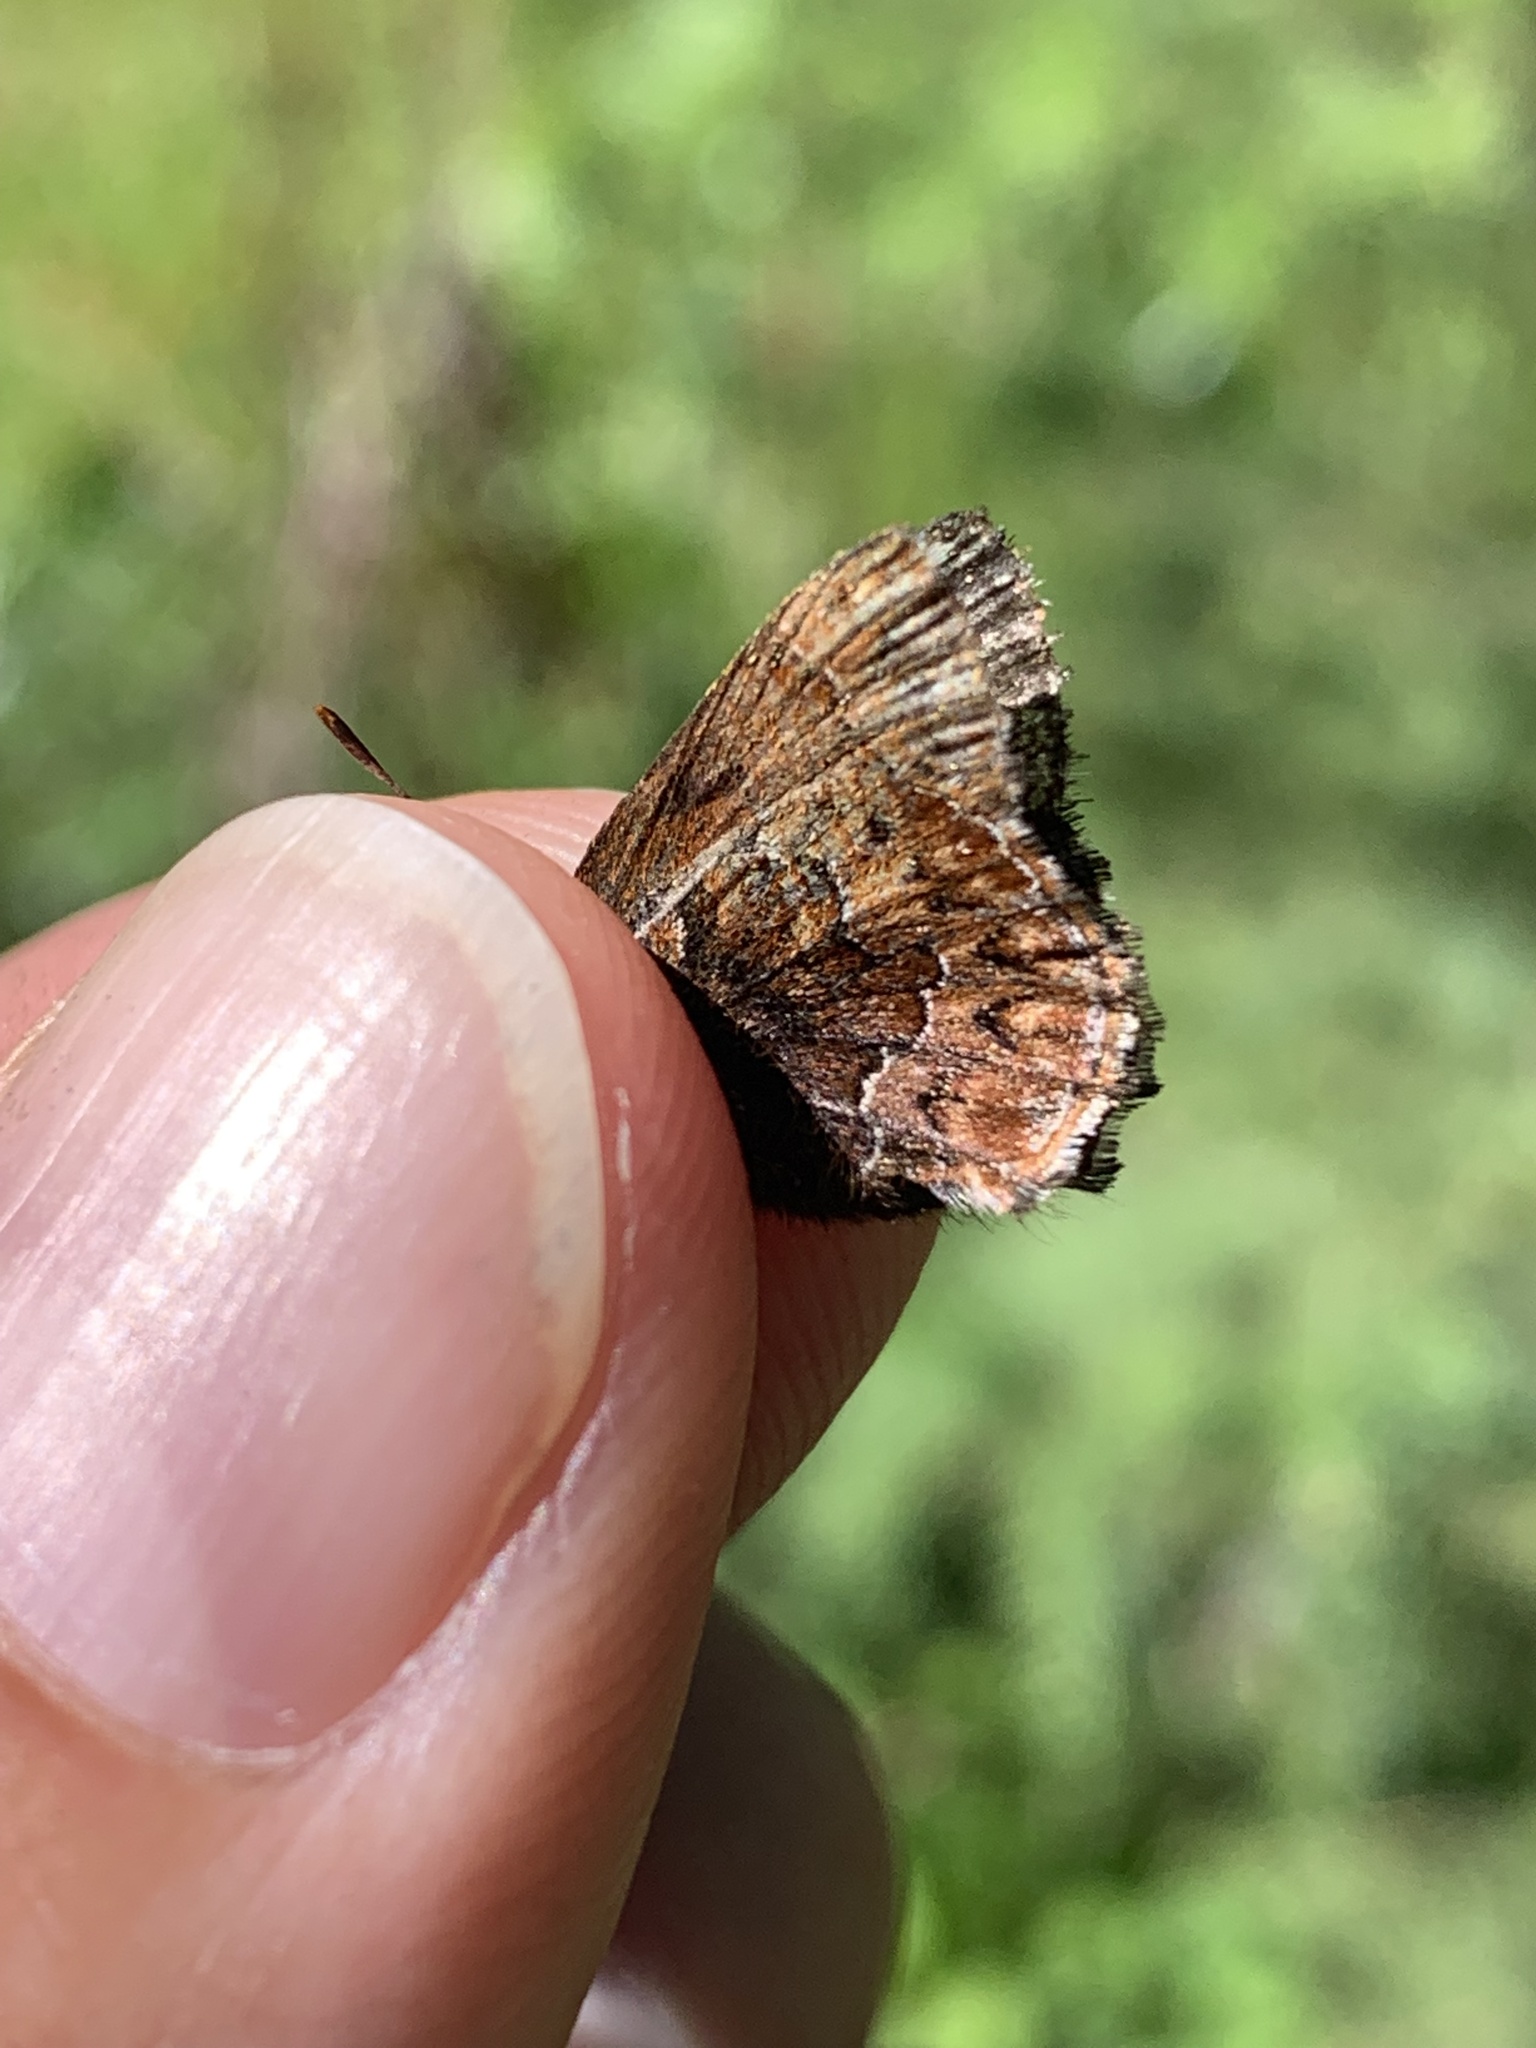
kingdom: Animalia
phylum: Arthropoda
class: Insecta
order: Lepidoptera
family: Lycaenidae
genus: Incisalia
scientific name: Incisalia eryphon
